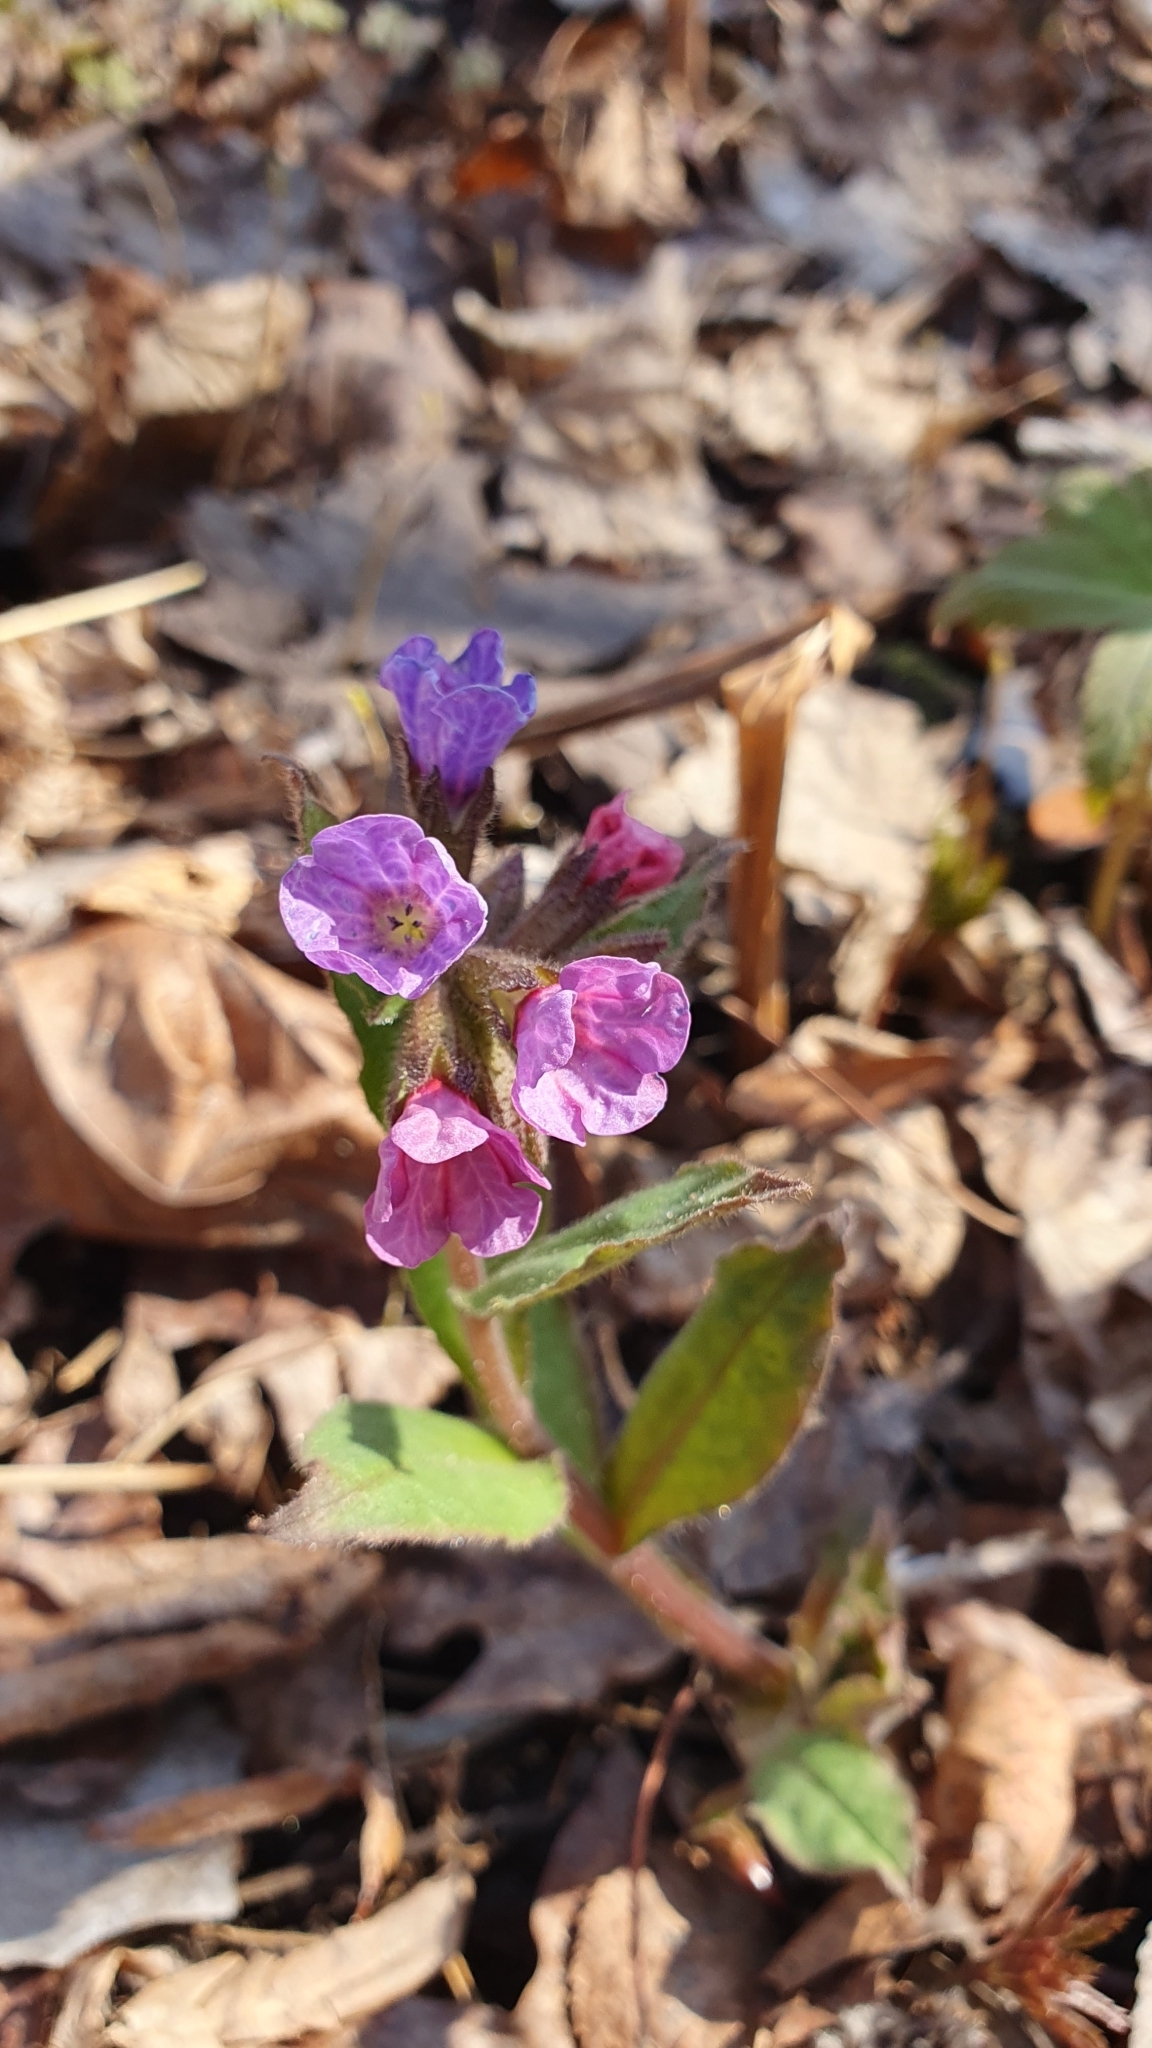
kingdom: Plantae
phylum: Tracheophyta
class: Magnoliopsida
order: Boraginales
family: Boraginaceae
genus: Pulmonaria
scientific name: Pulmonaria obscura
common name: Suffolk lungwort
